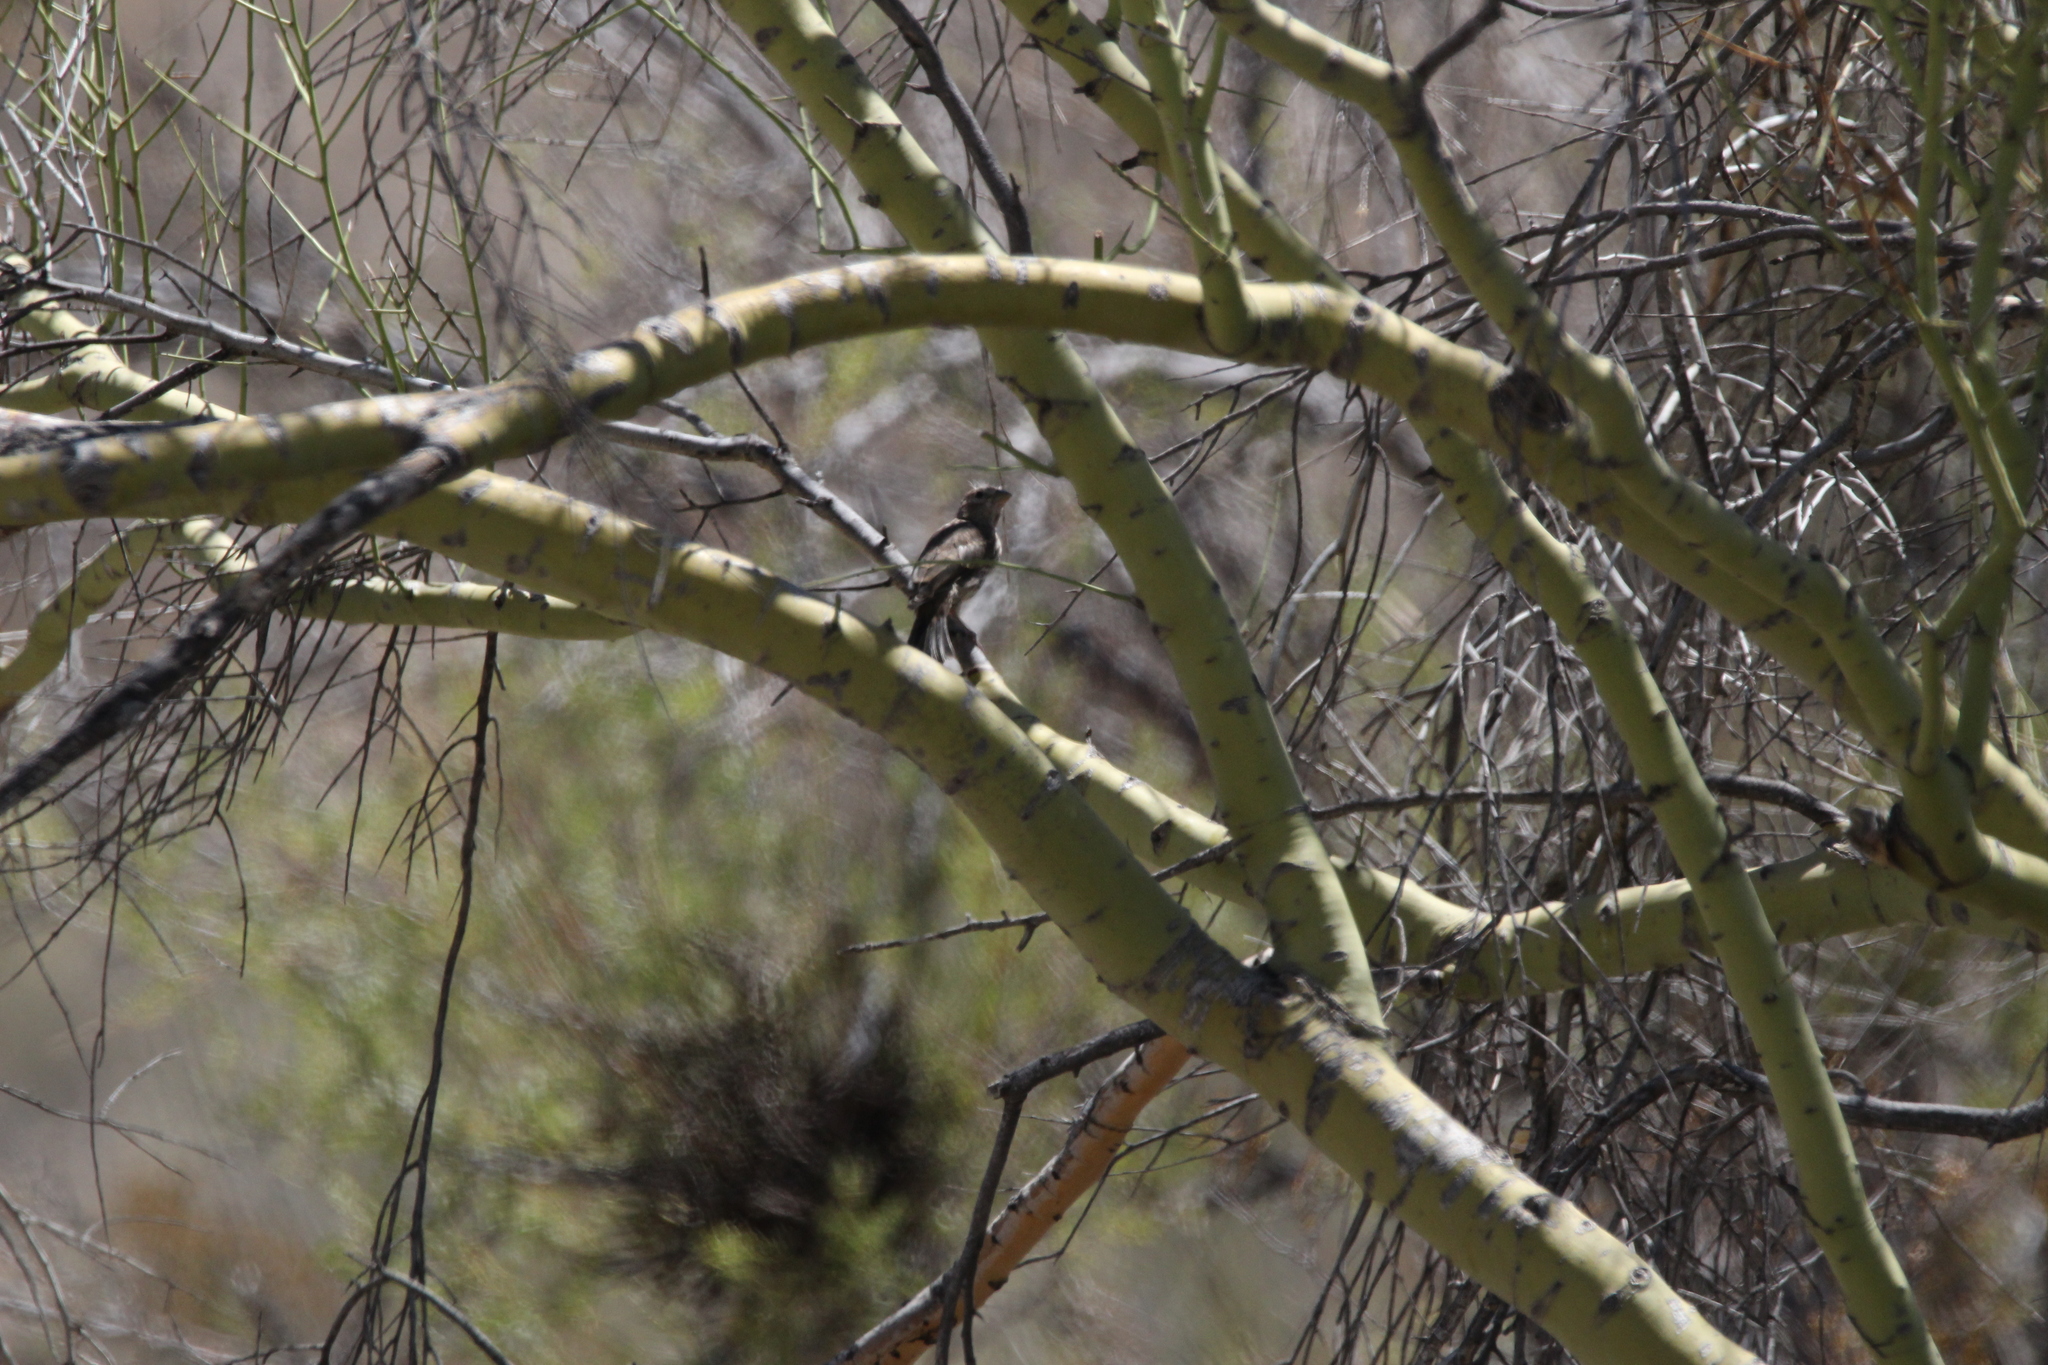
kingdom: Animalia
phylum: Chordata
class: Aves
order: Passeriformes
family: Fringillidae
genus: Haemorhous
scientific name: Haemorhous mexicanus
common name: House finch
